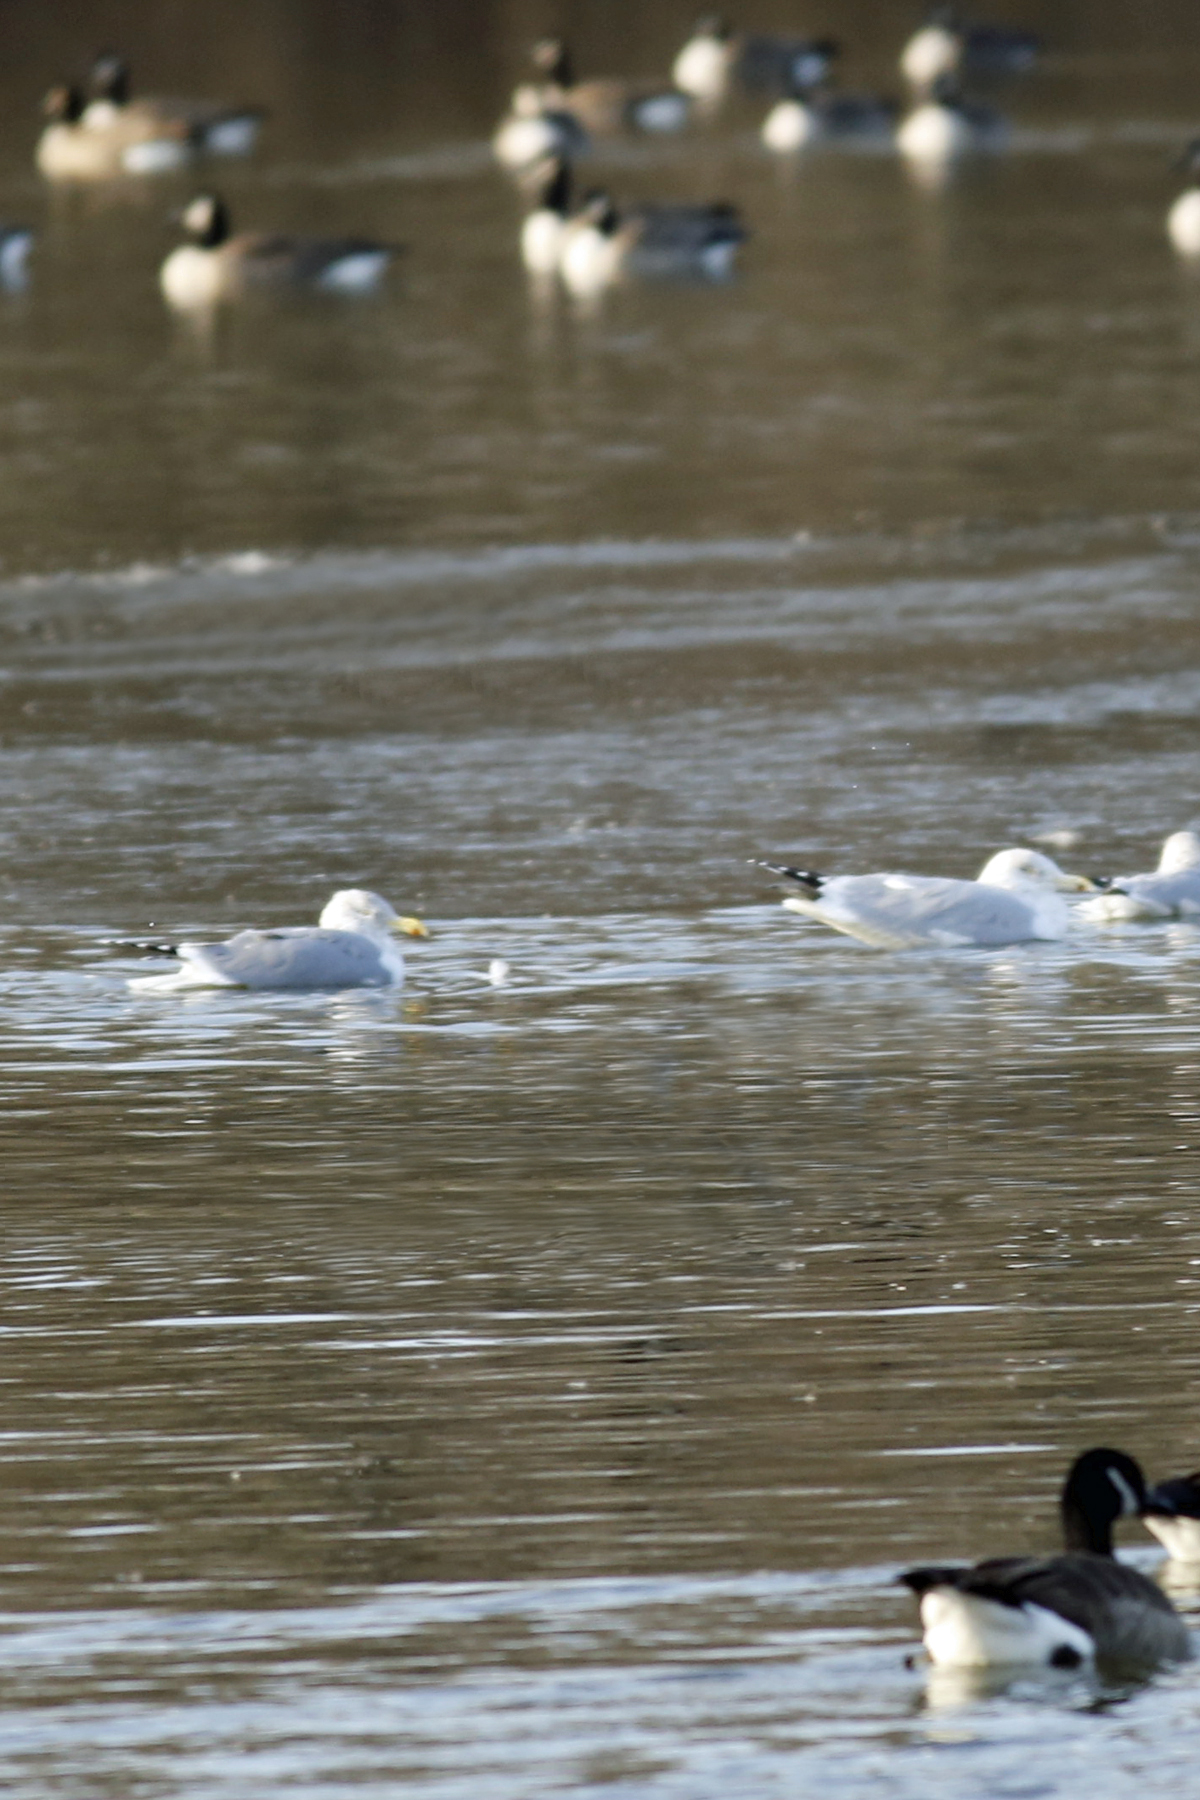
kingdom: Animalia
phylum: Chordata
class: Aves
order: Charadriiformes
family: Laridae
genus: Larus
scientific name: Larus argentatus
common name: Herring gull
